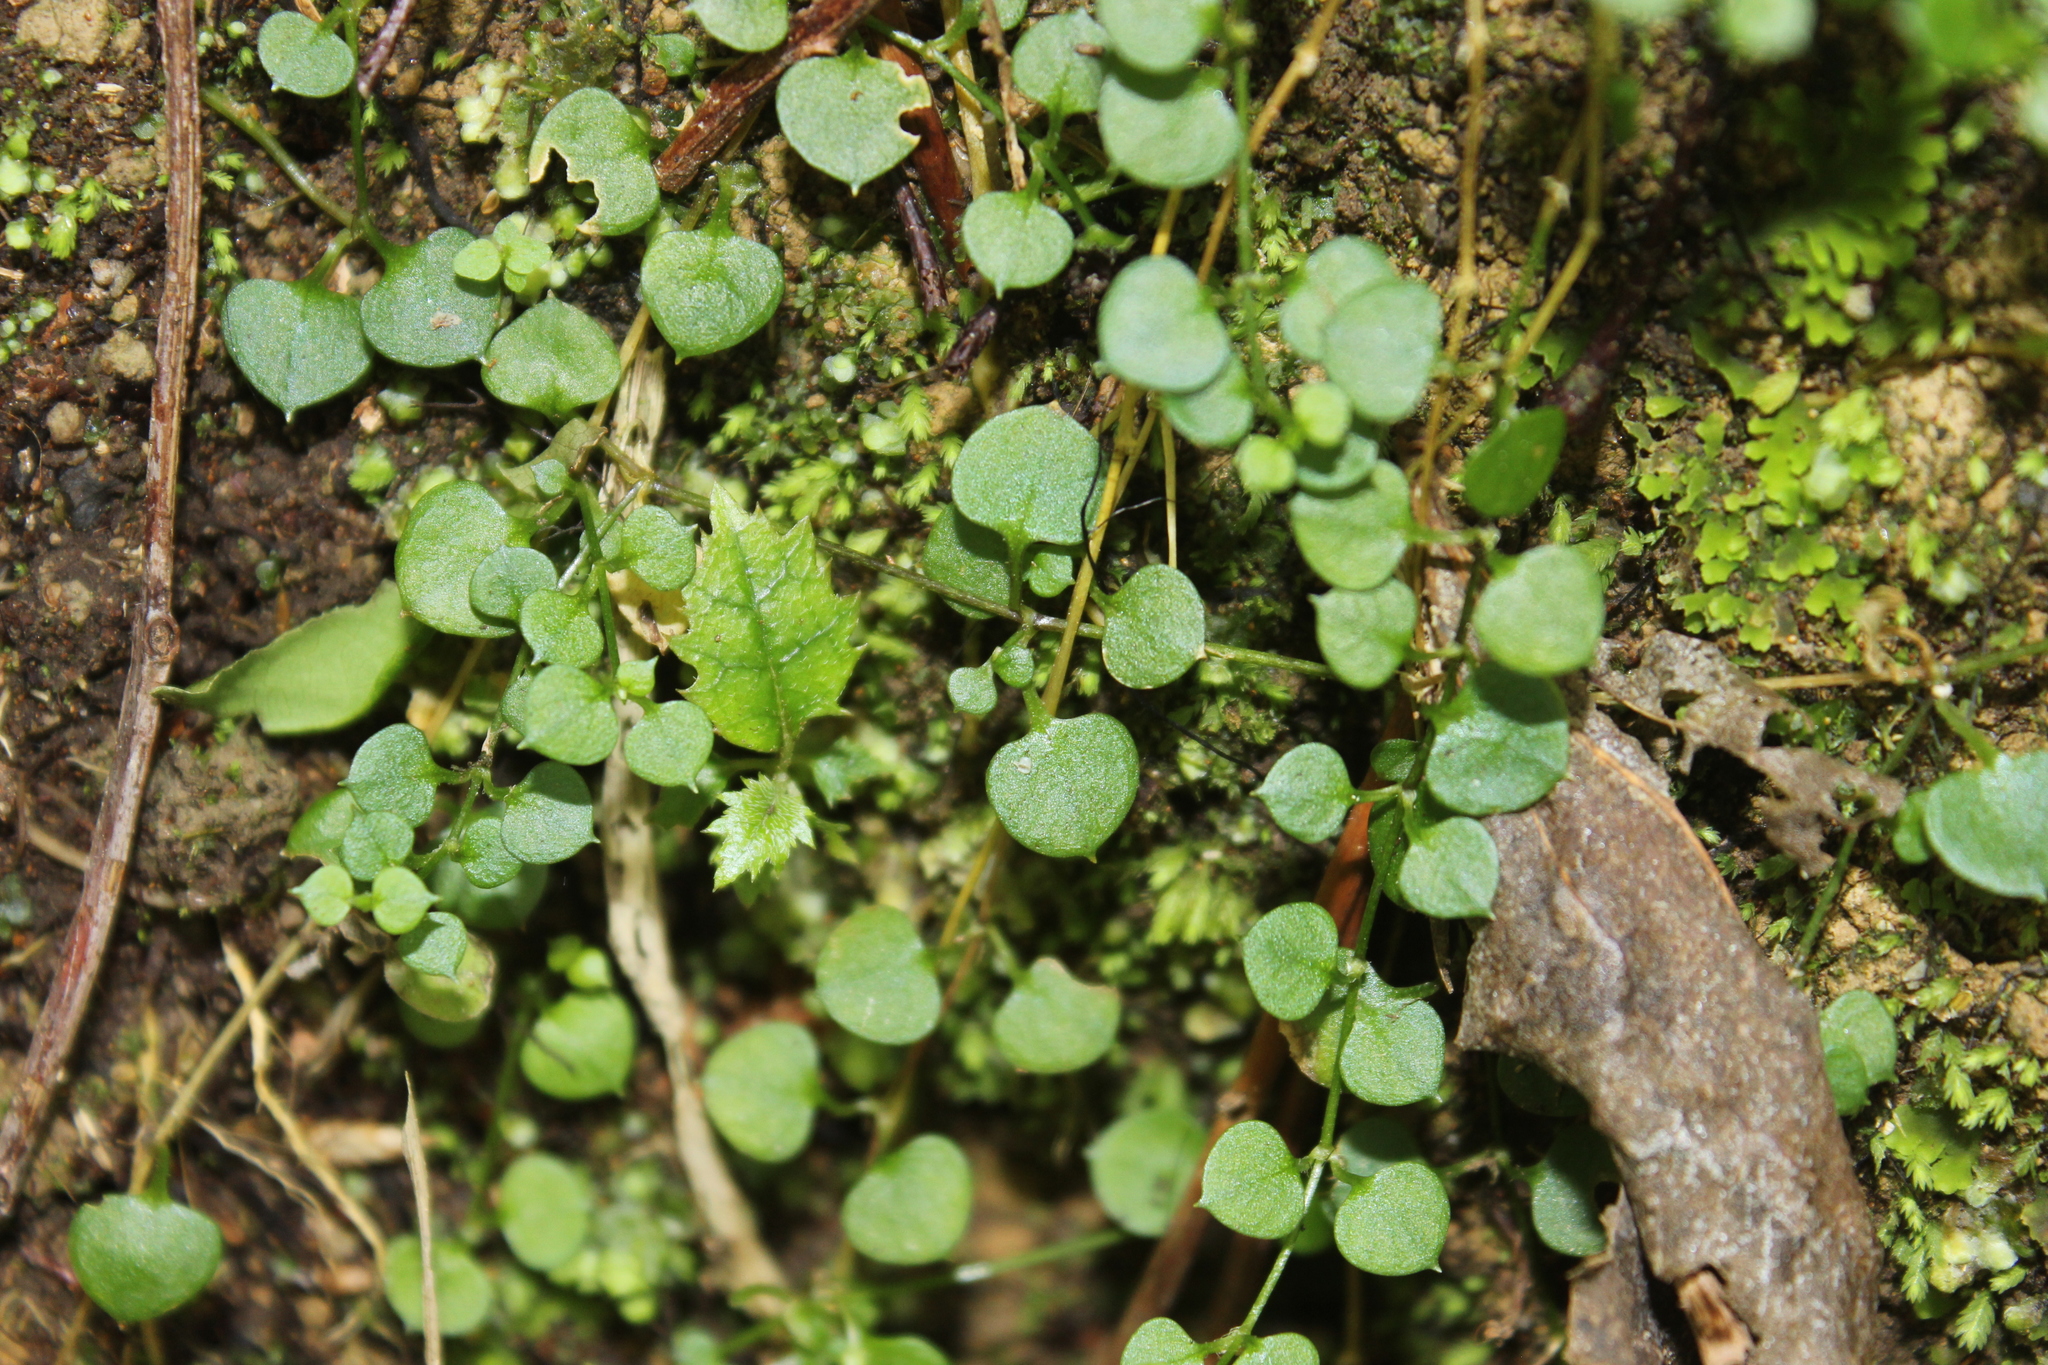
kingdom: Plantae
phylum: Tracheophyta
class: Magnoliopsida
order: Caryophyllales
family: Caryophyllaceae
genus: Stellaria
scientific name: Stellaria parviflora
